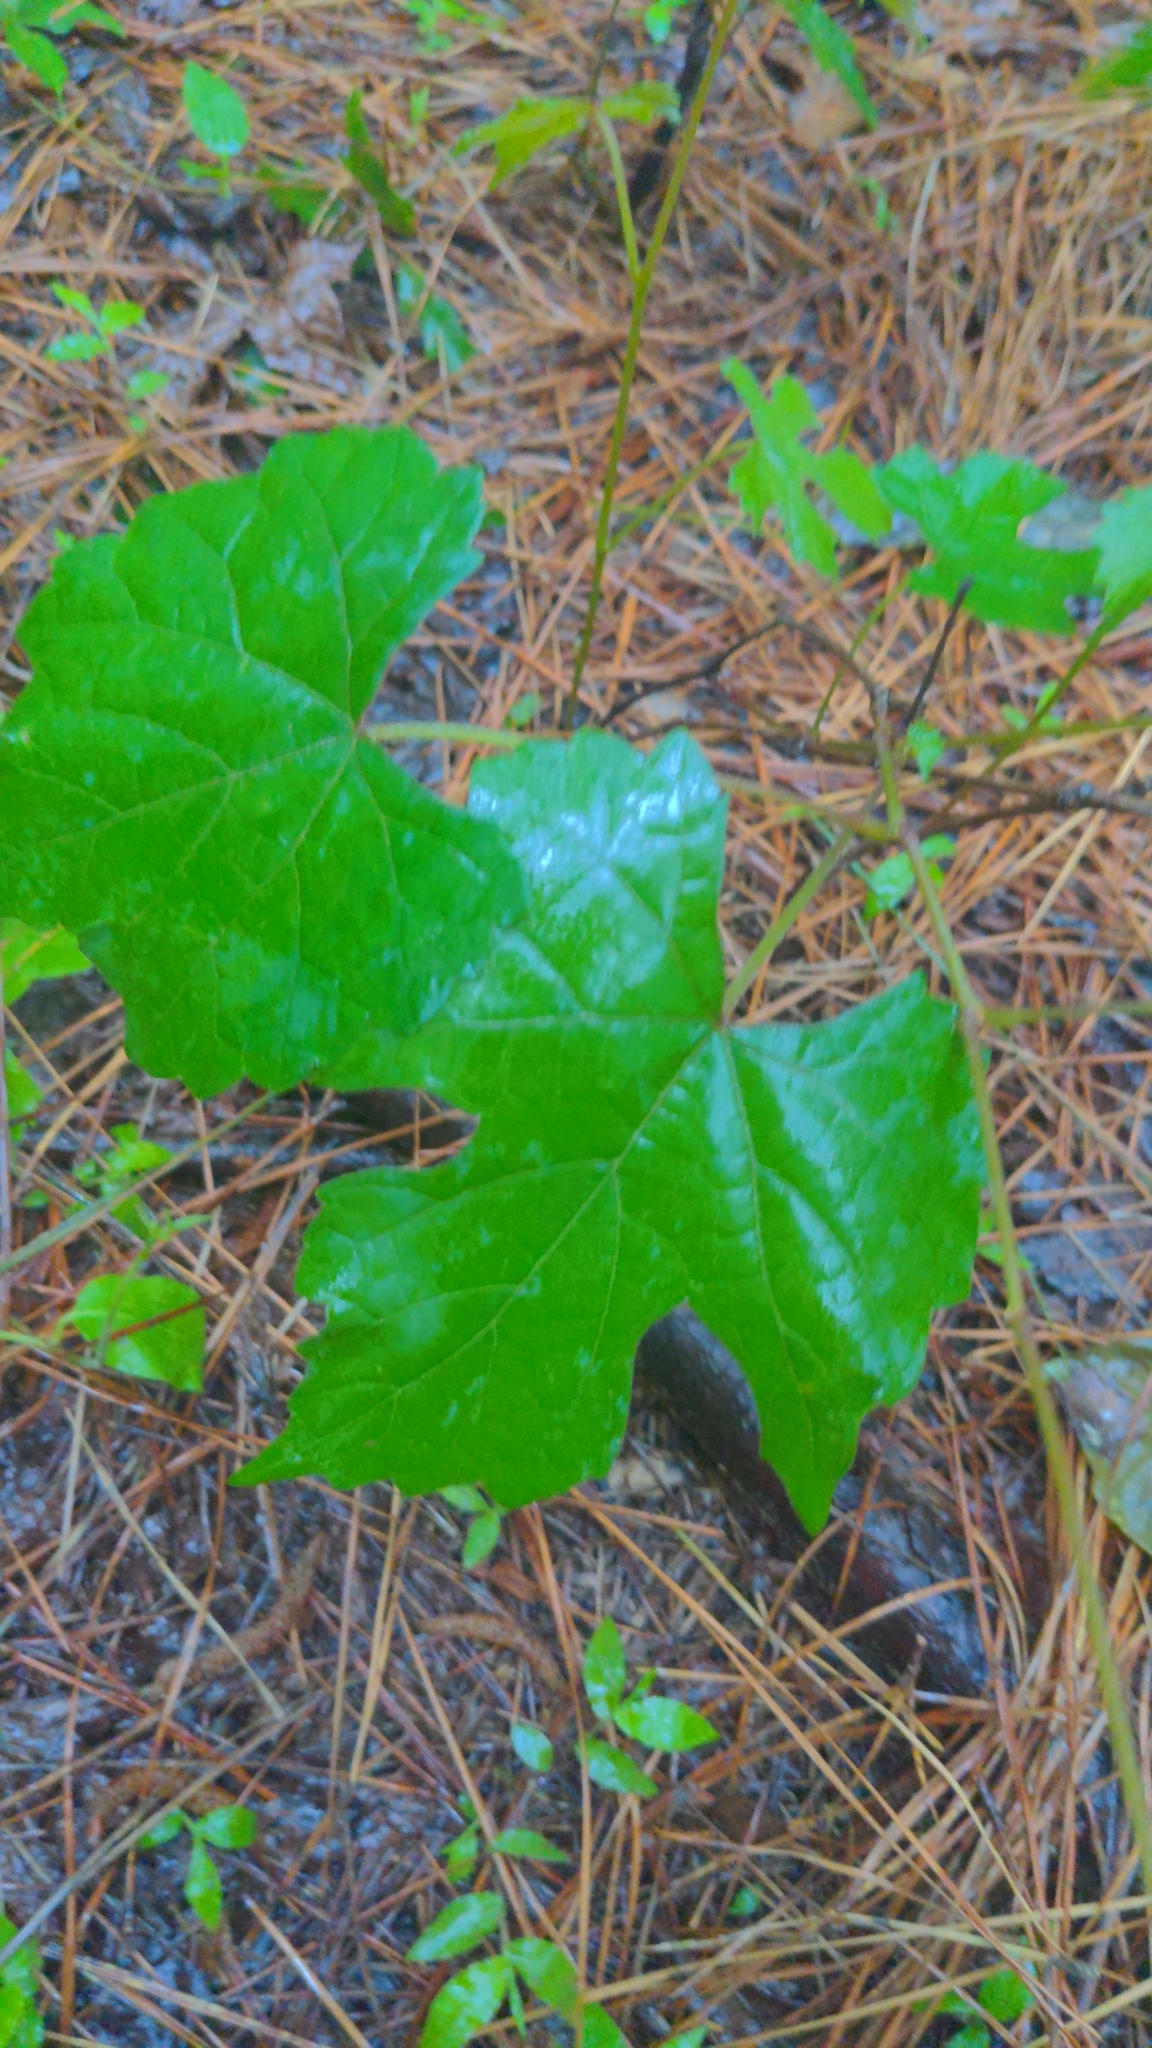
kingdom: Plantae
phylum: Tracheophyta
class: Magnoliopsida
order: Vitales
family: Vitaceae
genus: Vitis
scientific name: Vitis aestivalis
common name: Pigeon grape
